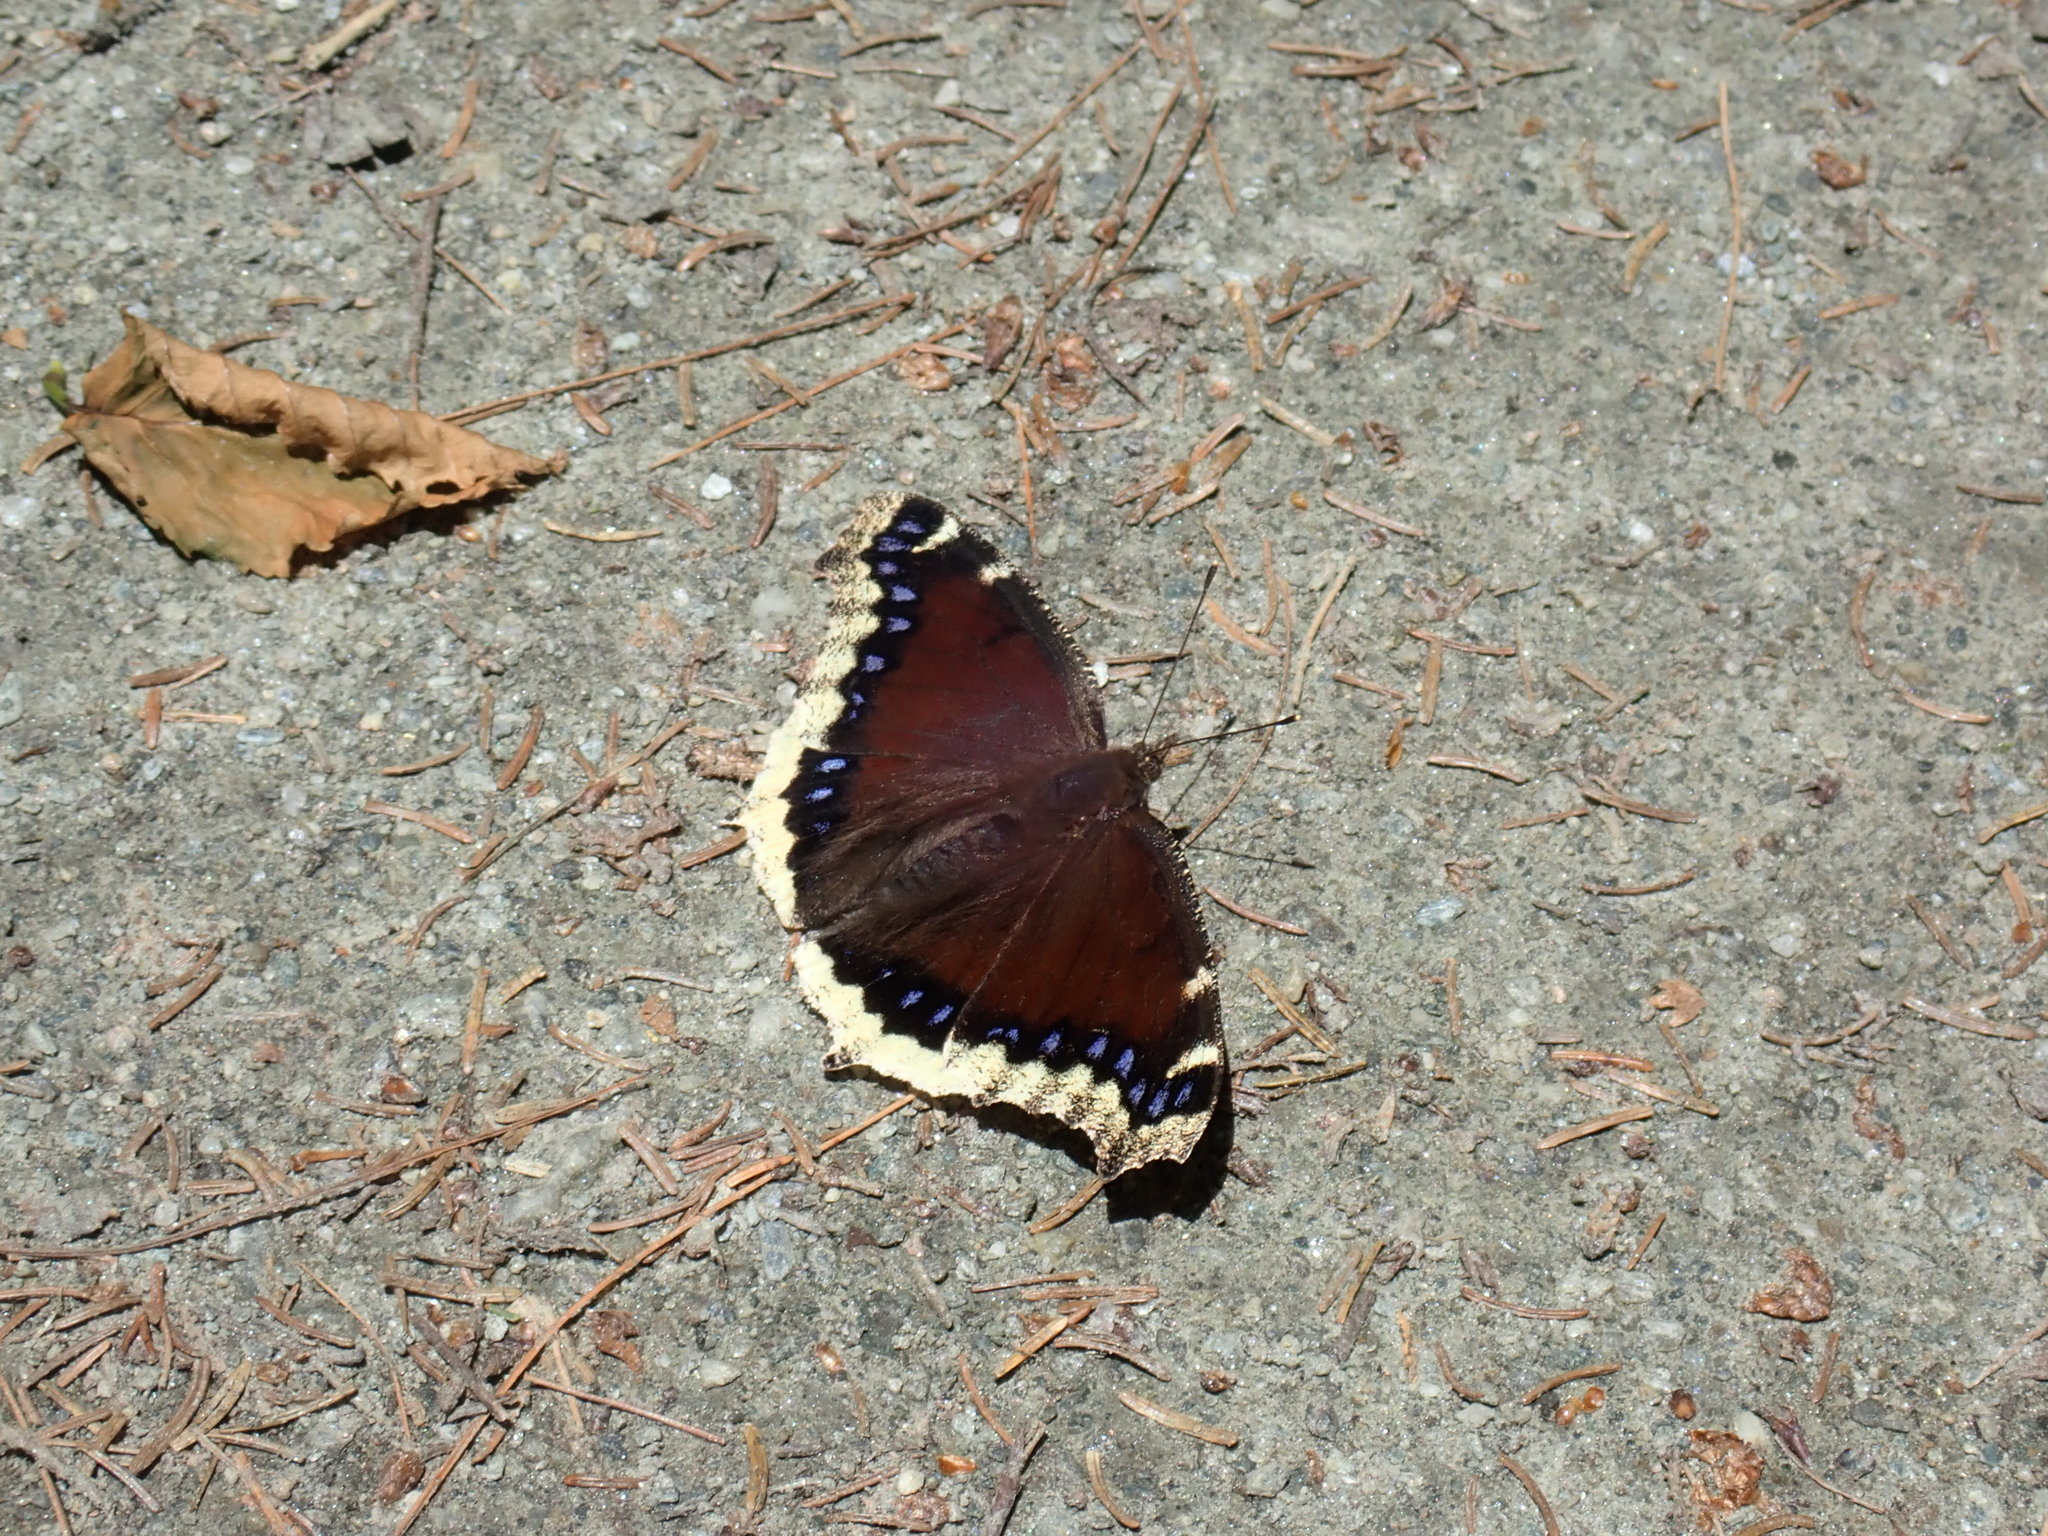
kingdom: Animalia
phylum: Arthropoda
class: Insecta
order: Lepidoptera
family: Nymphalidae
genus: Nymphalis
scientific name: Nymphalis antiopa
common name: Camberwell beauty
